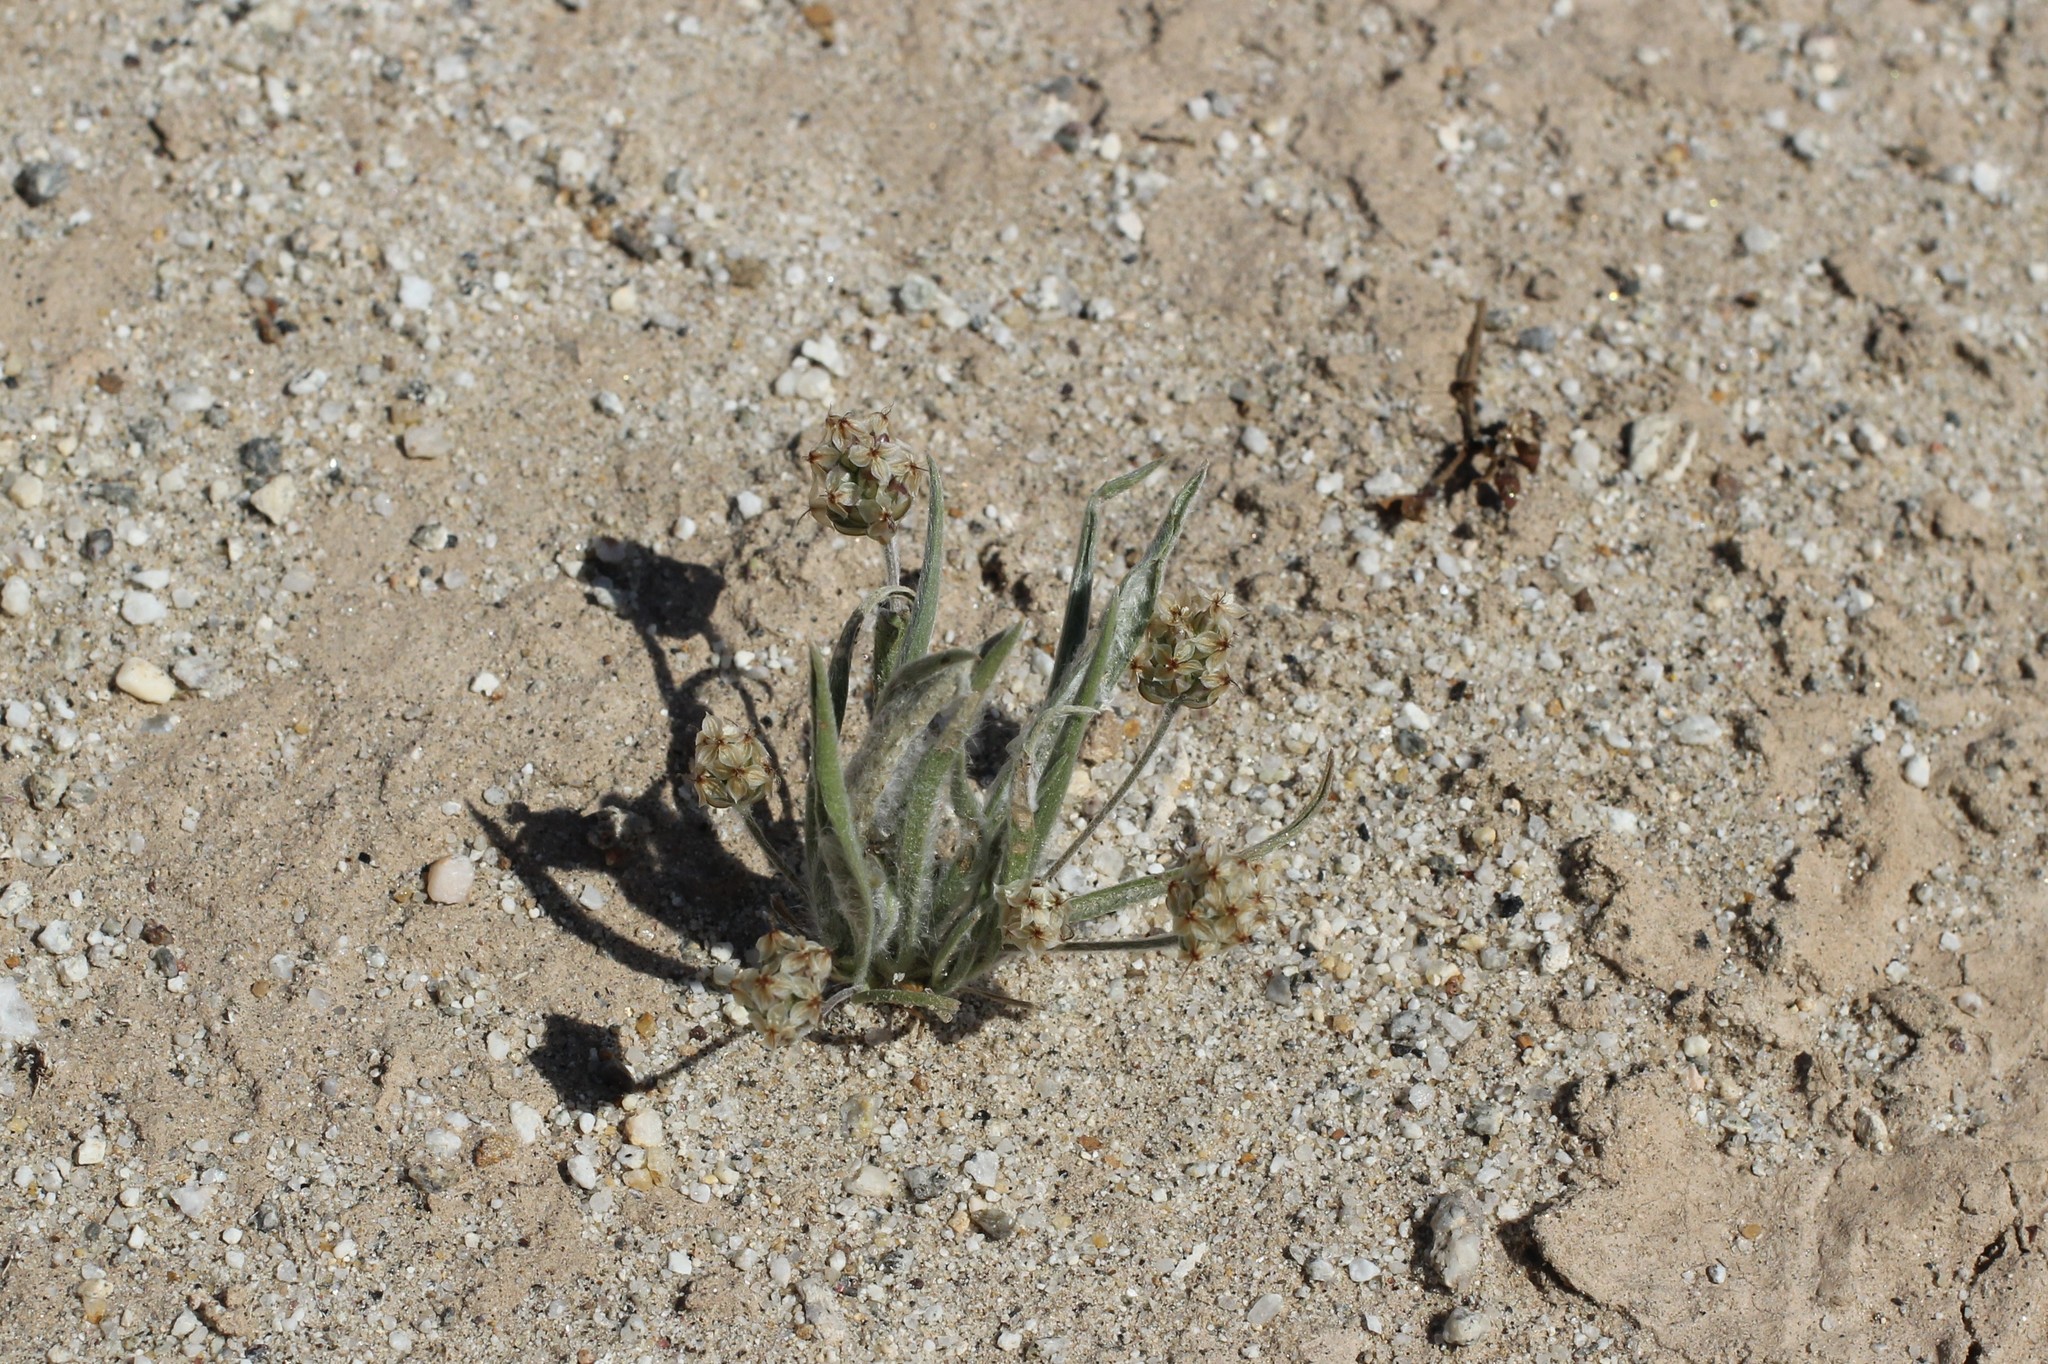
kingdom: Plantae
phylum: Tracheophyta
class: Magnoliopsida
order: Lamiales
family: Plantaginaceae
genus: Plantago
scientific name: Plantago ovata
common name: Blond plantain
